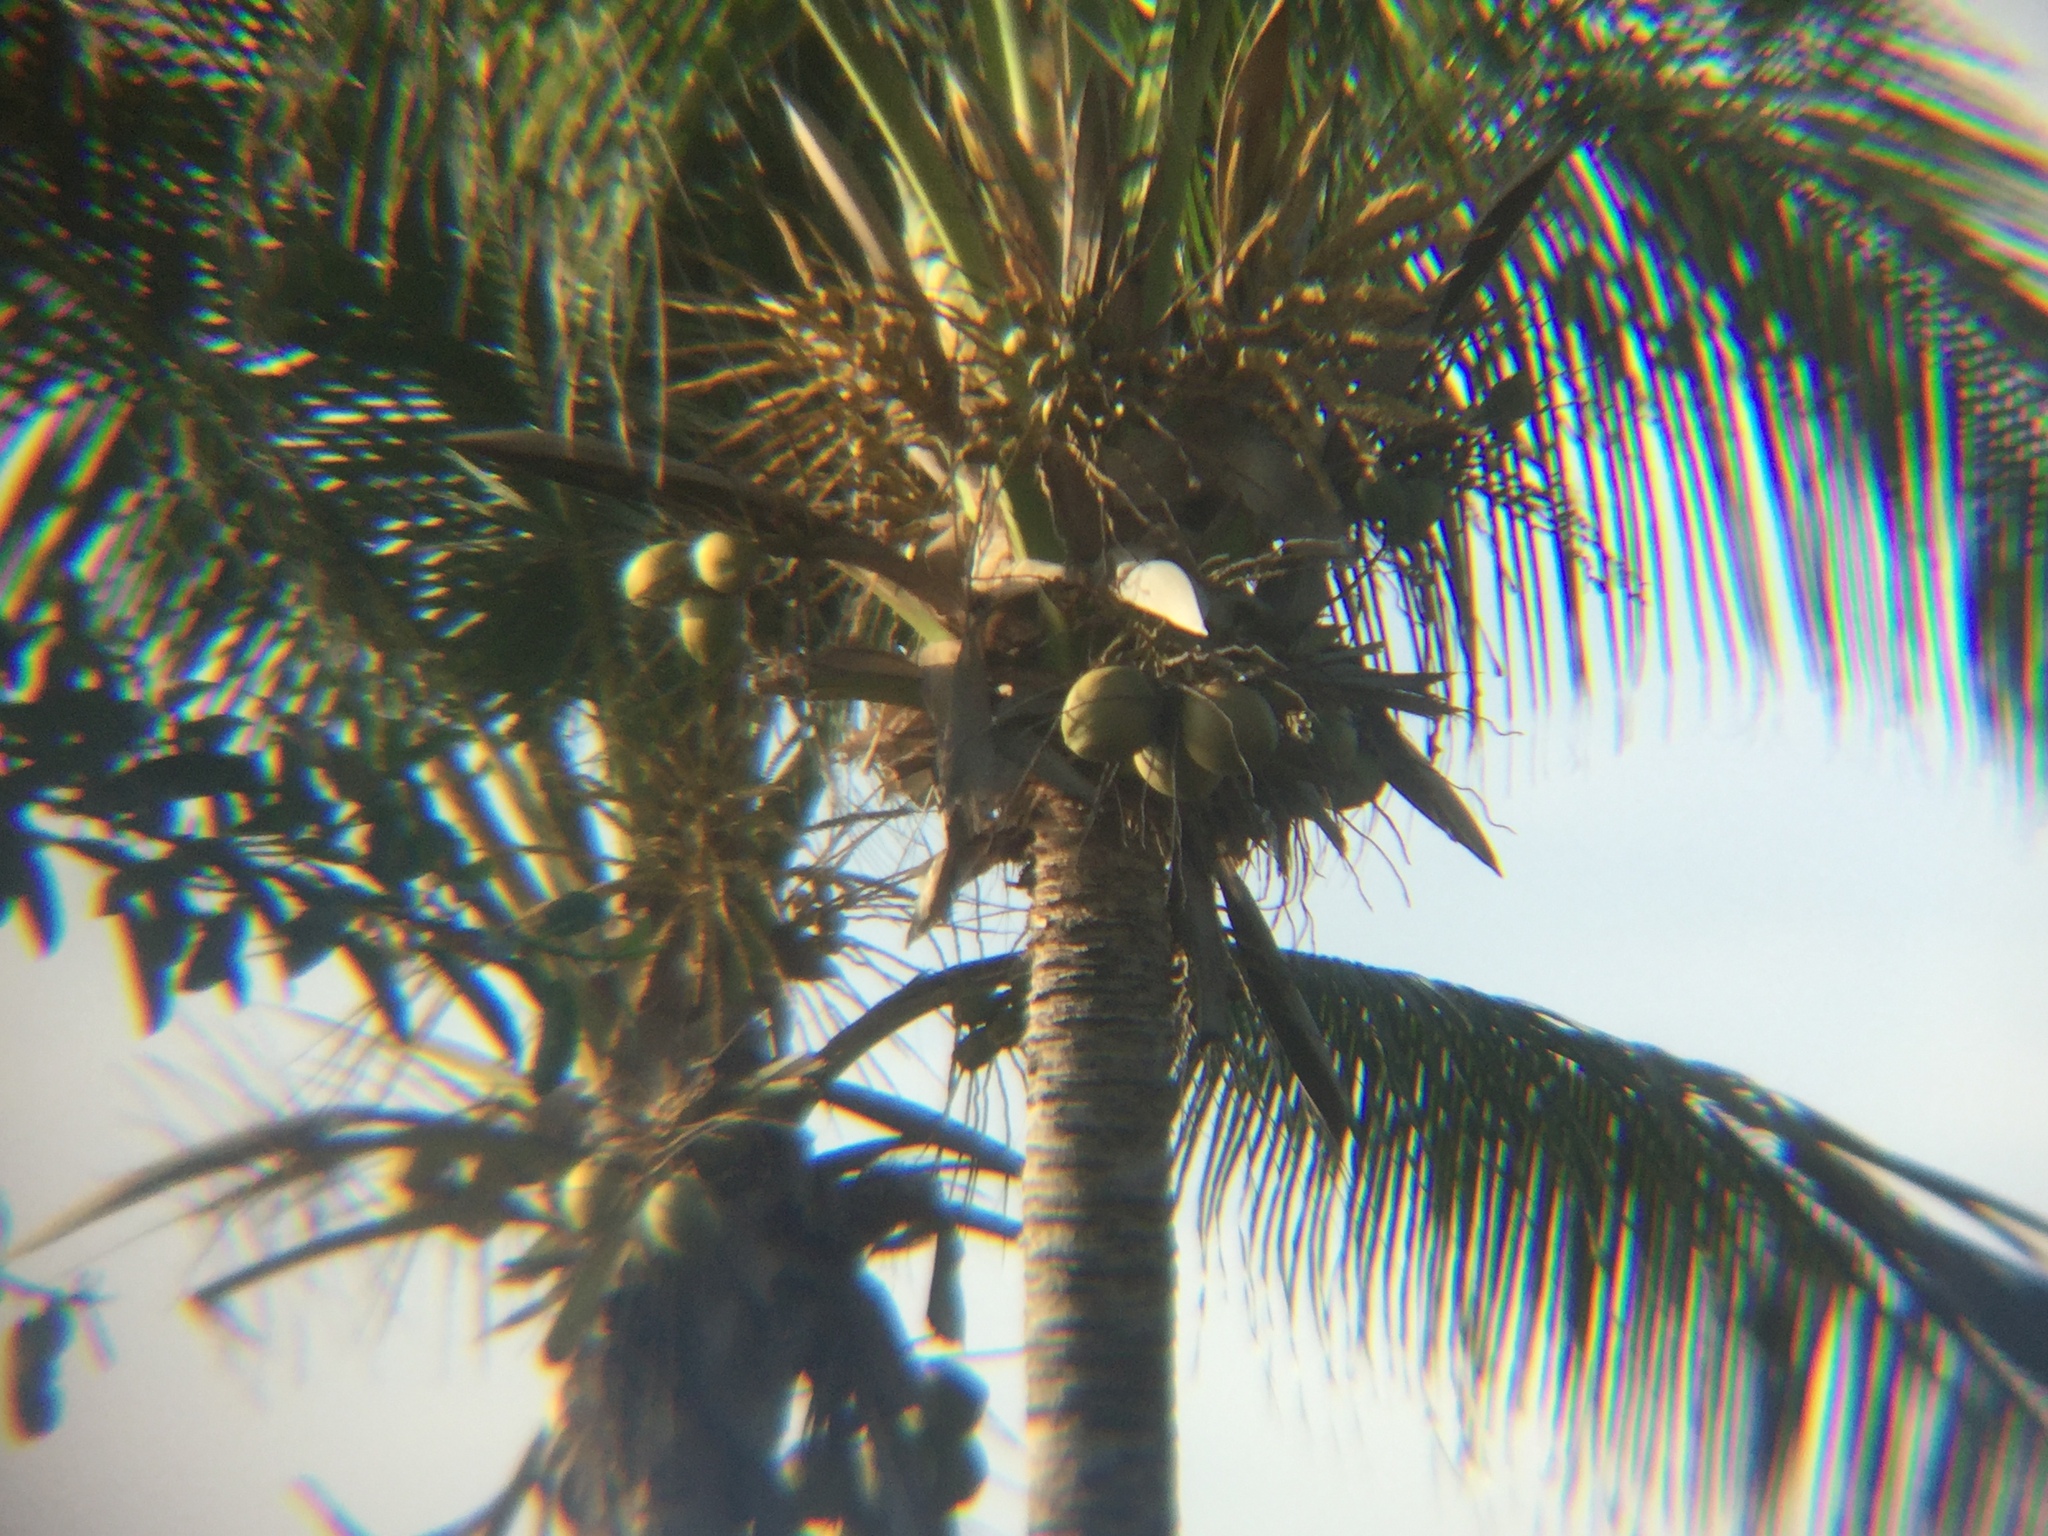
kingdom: Plantae
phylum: Tracheophyta
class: Liliopsida
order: Arecales
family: Arecaceae
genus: Cocos
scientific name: Cocos nucifera
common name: Coconut palm
